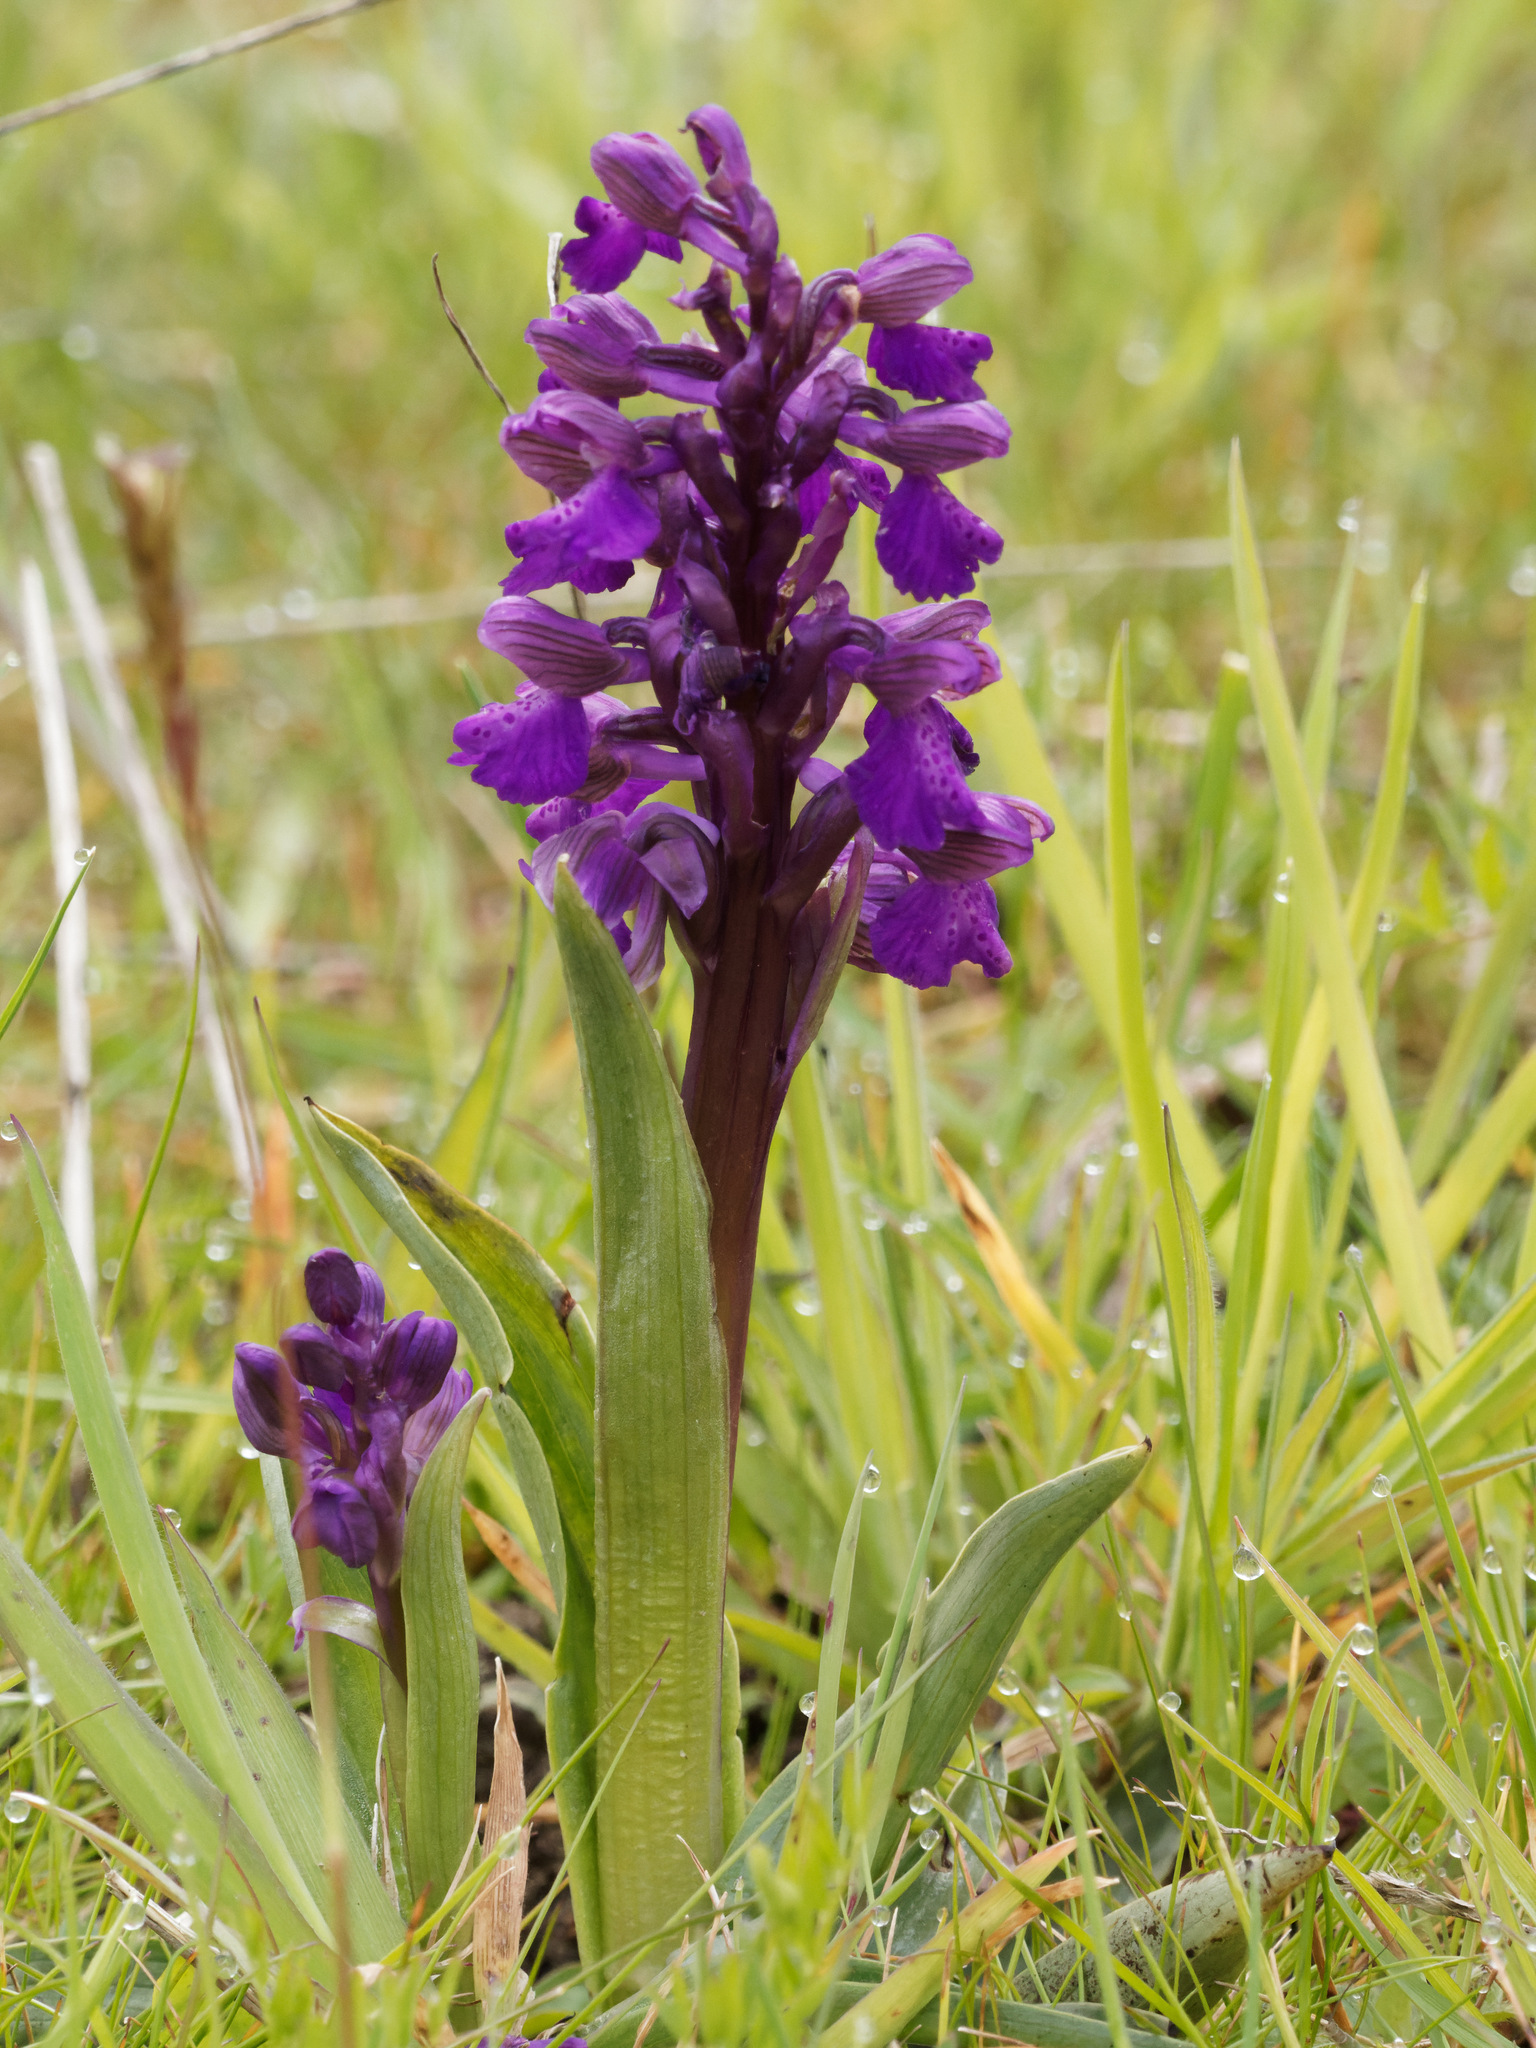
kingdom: Plantae
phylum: Tracheophyta
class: Liliopsida
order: Asparagales
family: Orchidaceae
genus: Anacamptis
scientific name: Anacamptis morio
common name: Green-winged orchid
